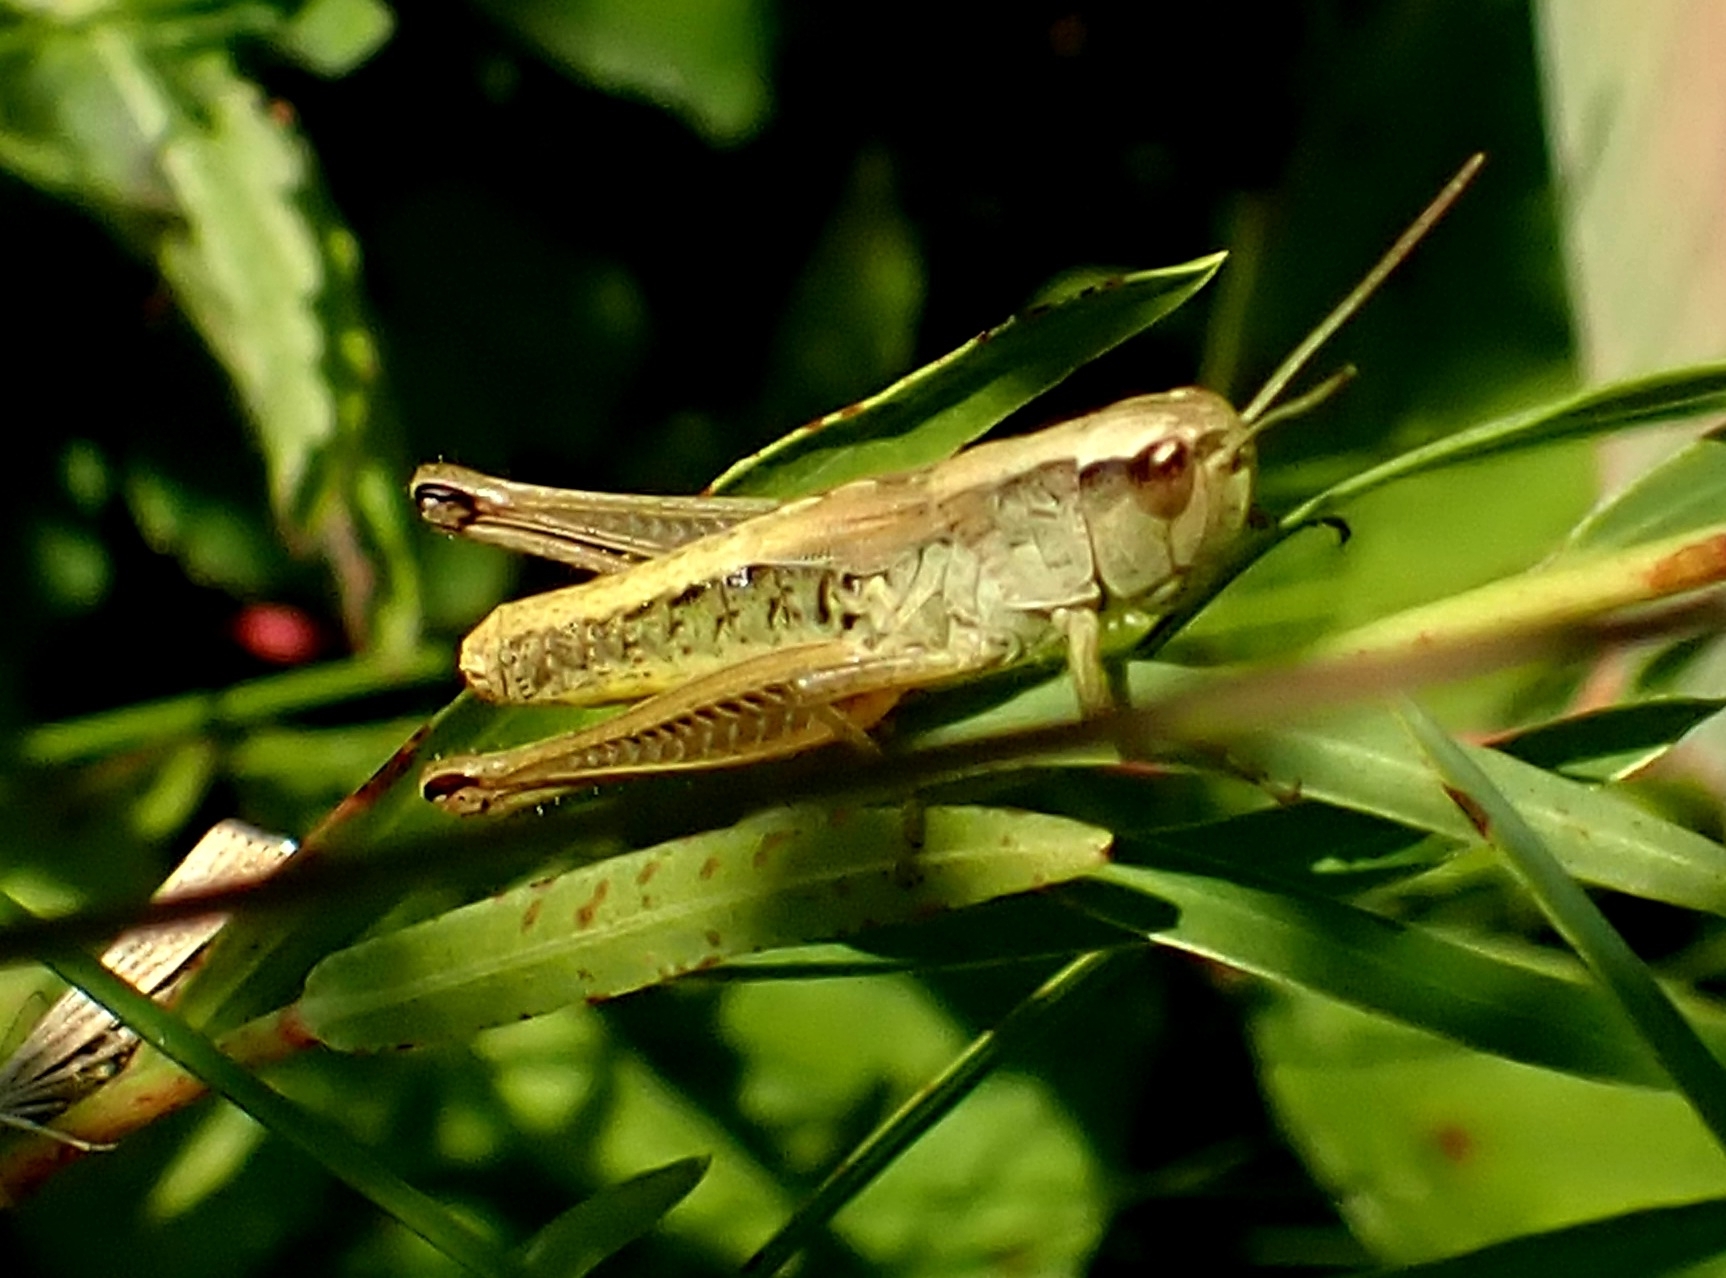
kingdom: Animalia
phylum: Arthropoda
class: Insecta
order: Orthoptera
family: Acrididae
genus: Pseudochorthippus
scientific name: Pseudochorthippus parallelus
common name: Meadow grasshopper
